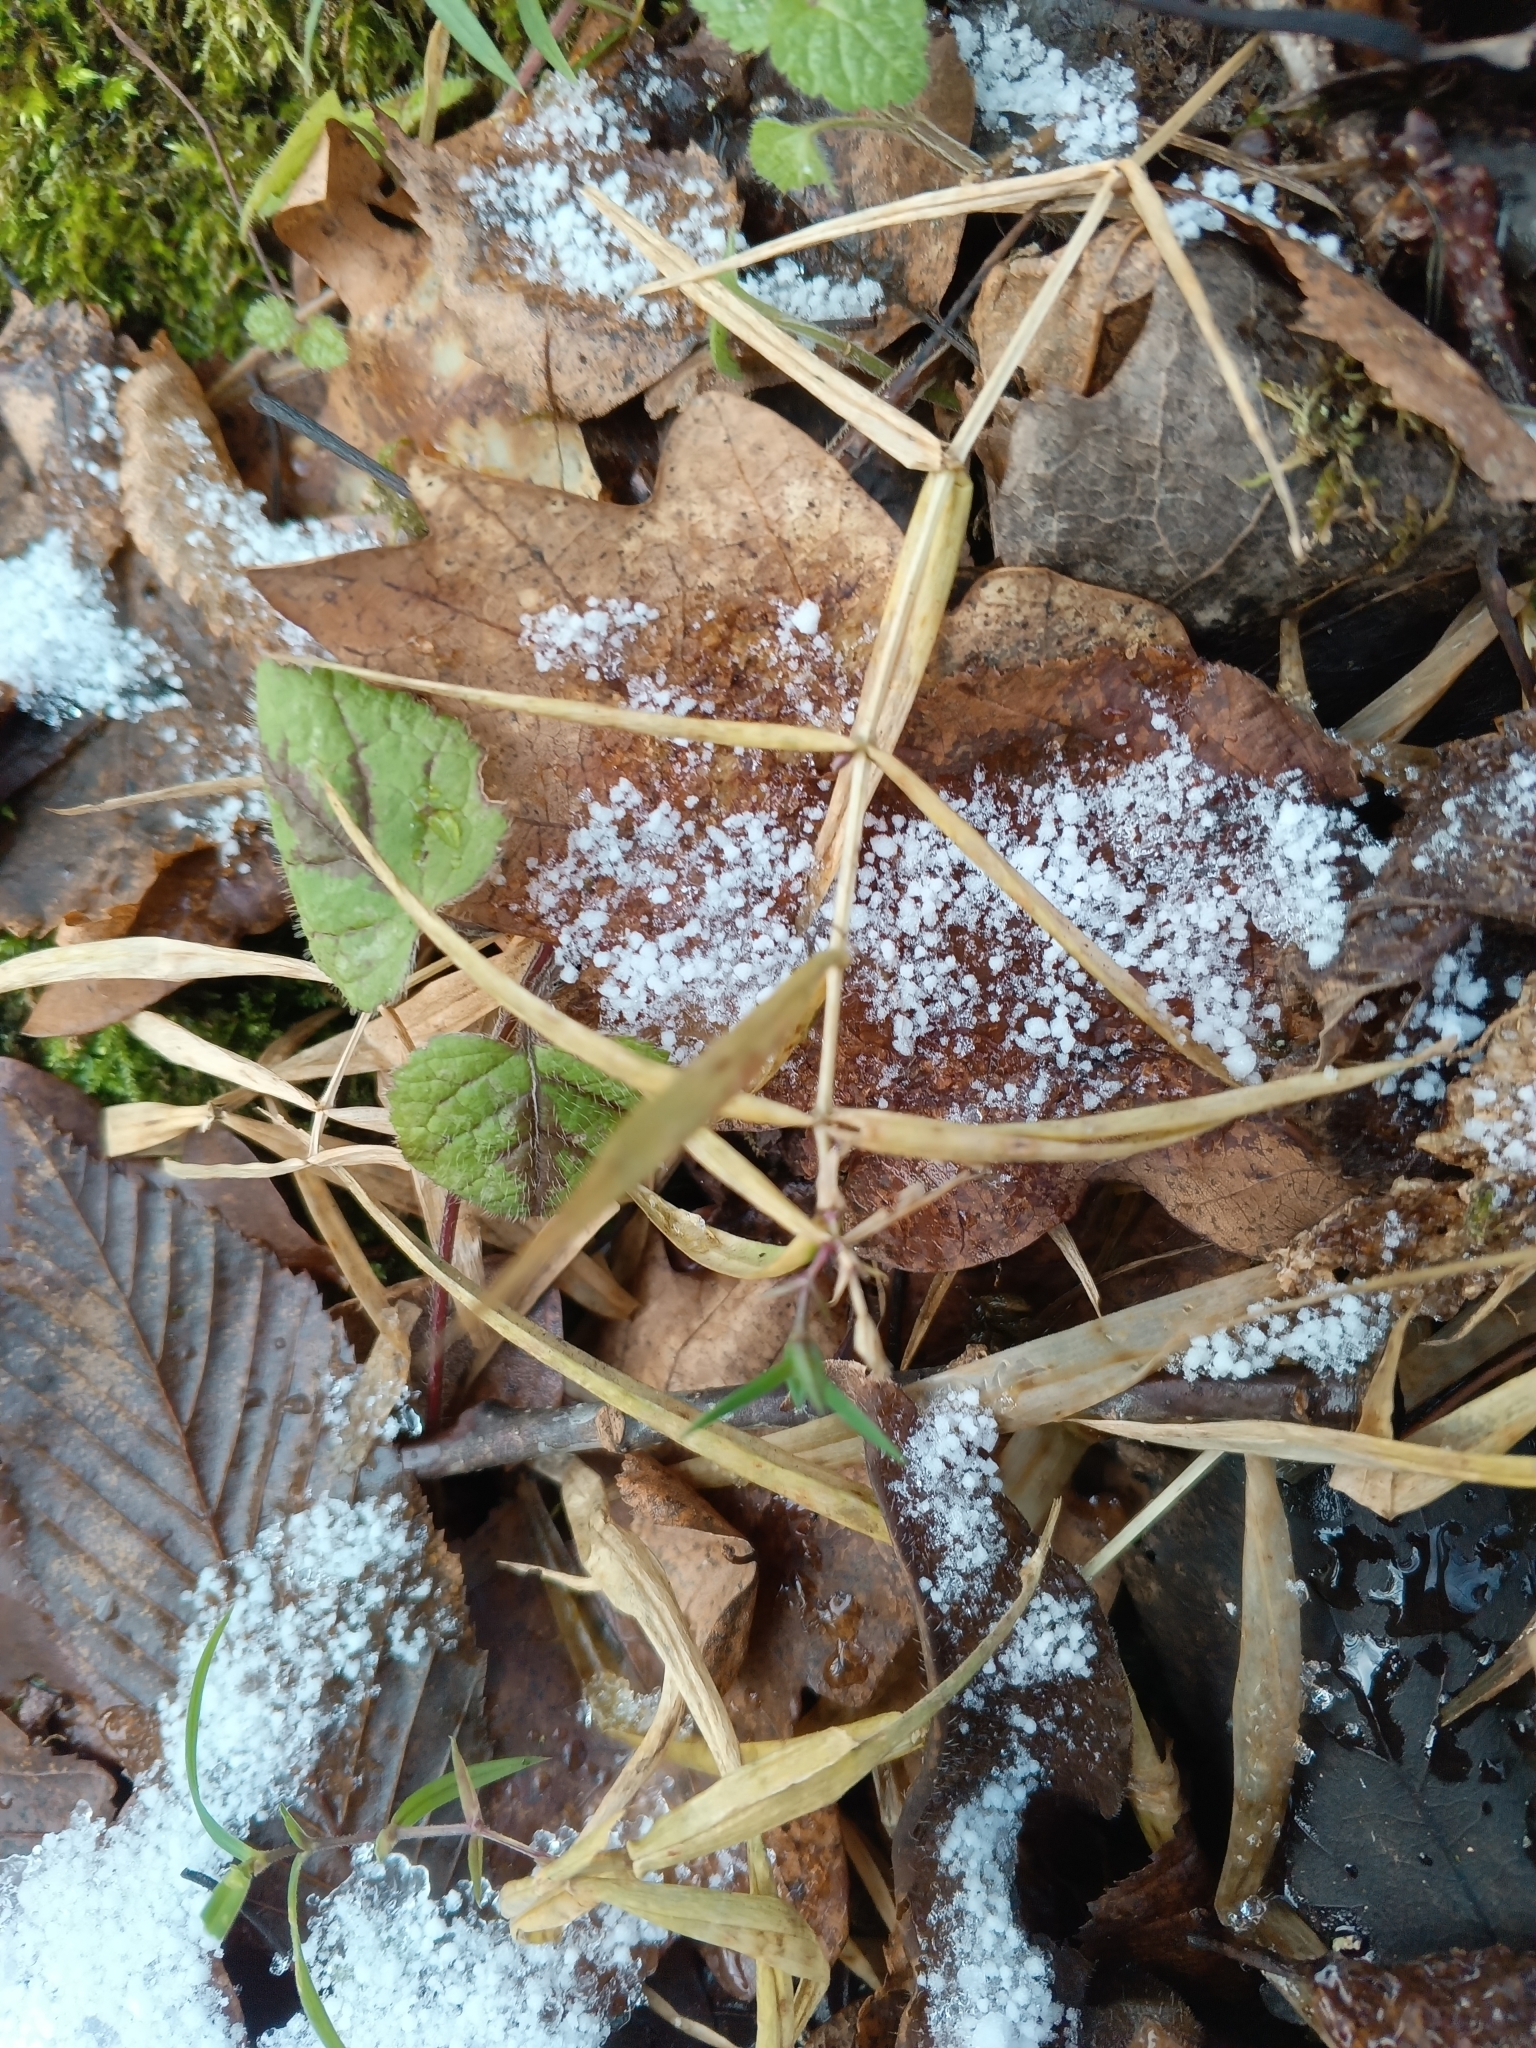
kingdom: Plantae
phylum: Tracheophyta
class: Magnoliopsida
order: Caryophyllales
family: Caryophyllaceae
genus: Rabelera
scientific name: Rabelera holostea
